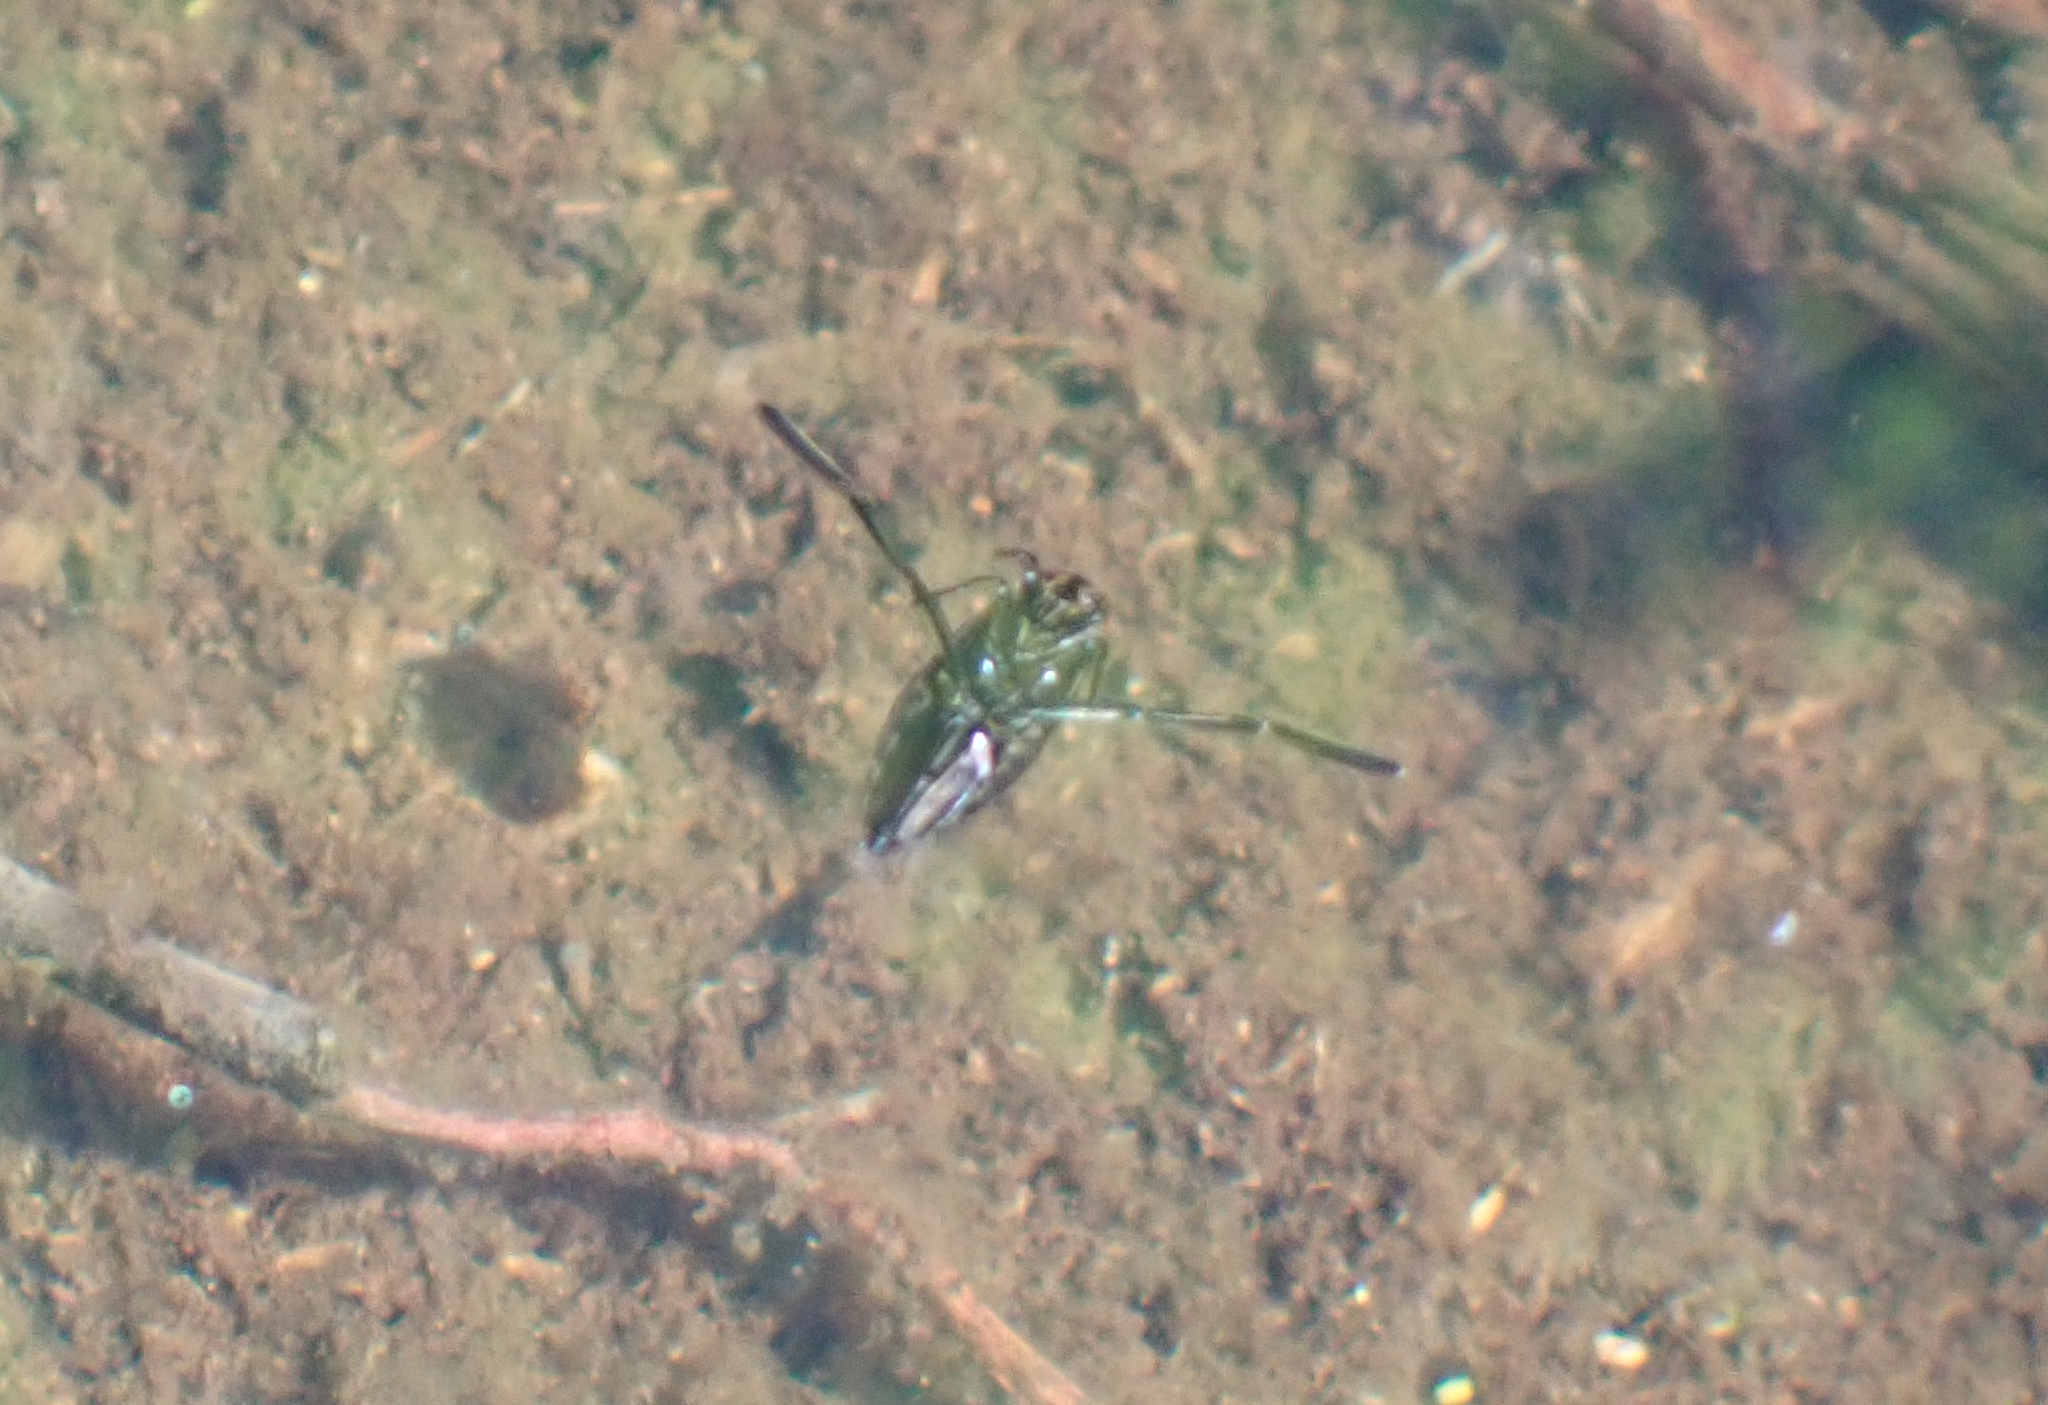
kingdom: Animalia
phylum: Arthropoda
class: Insecta
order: Hemiptera
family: Notonectidae
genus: Notonecta
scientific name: Notonecta
